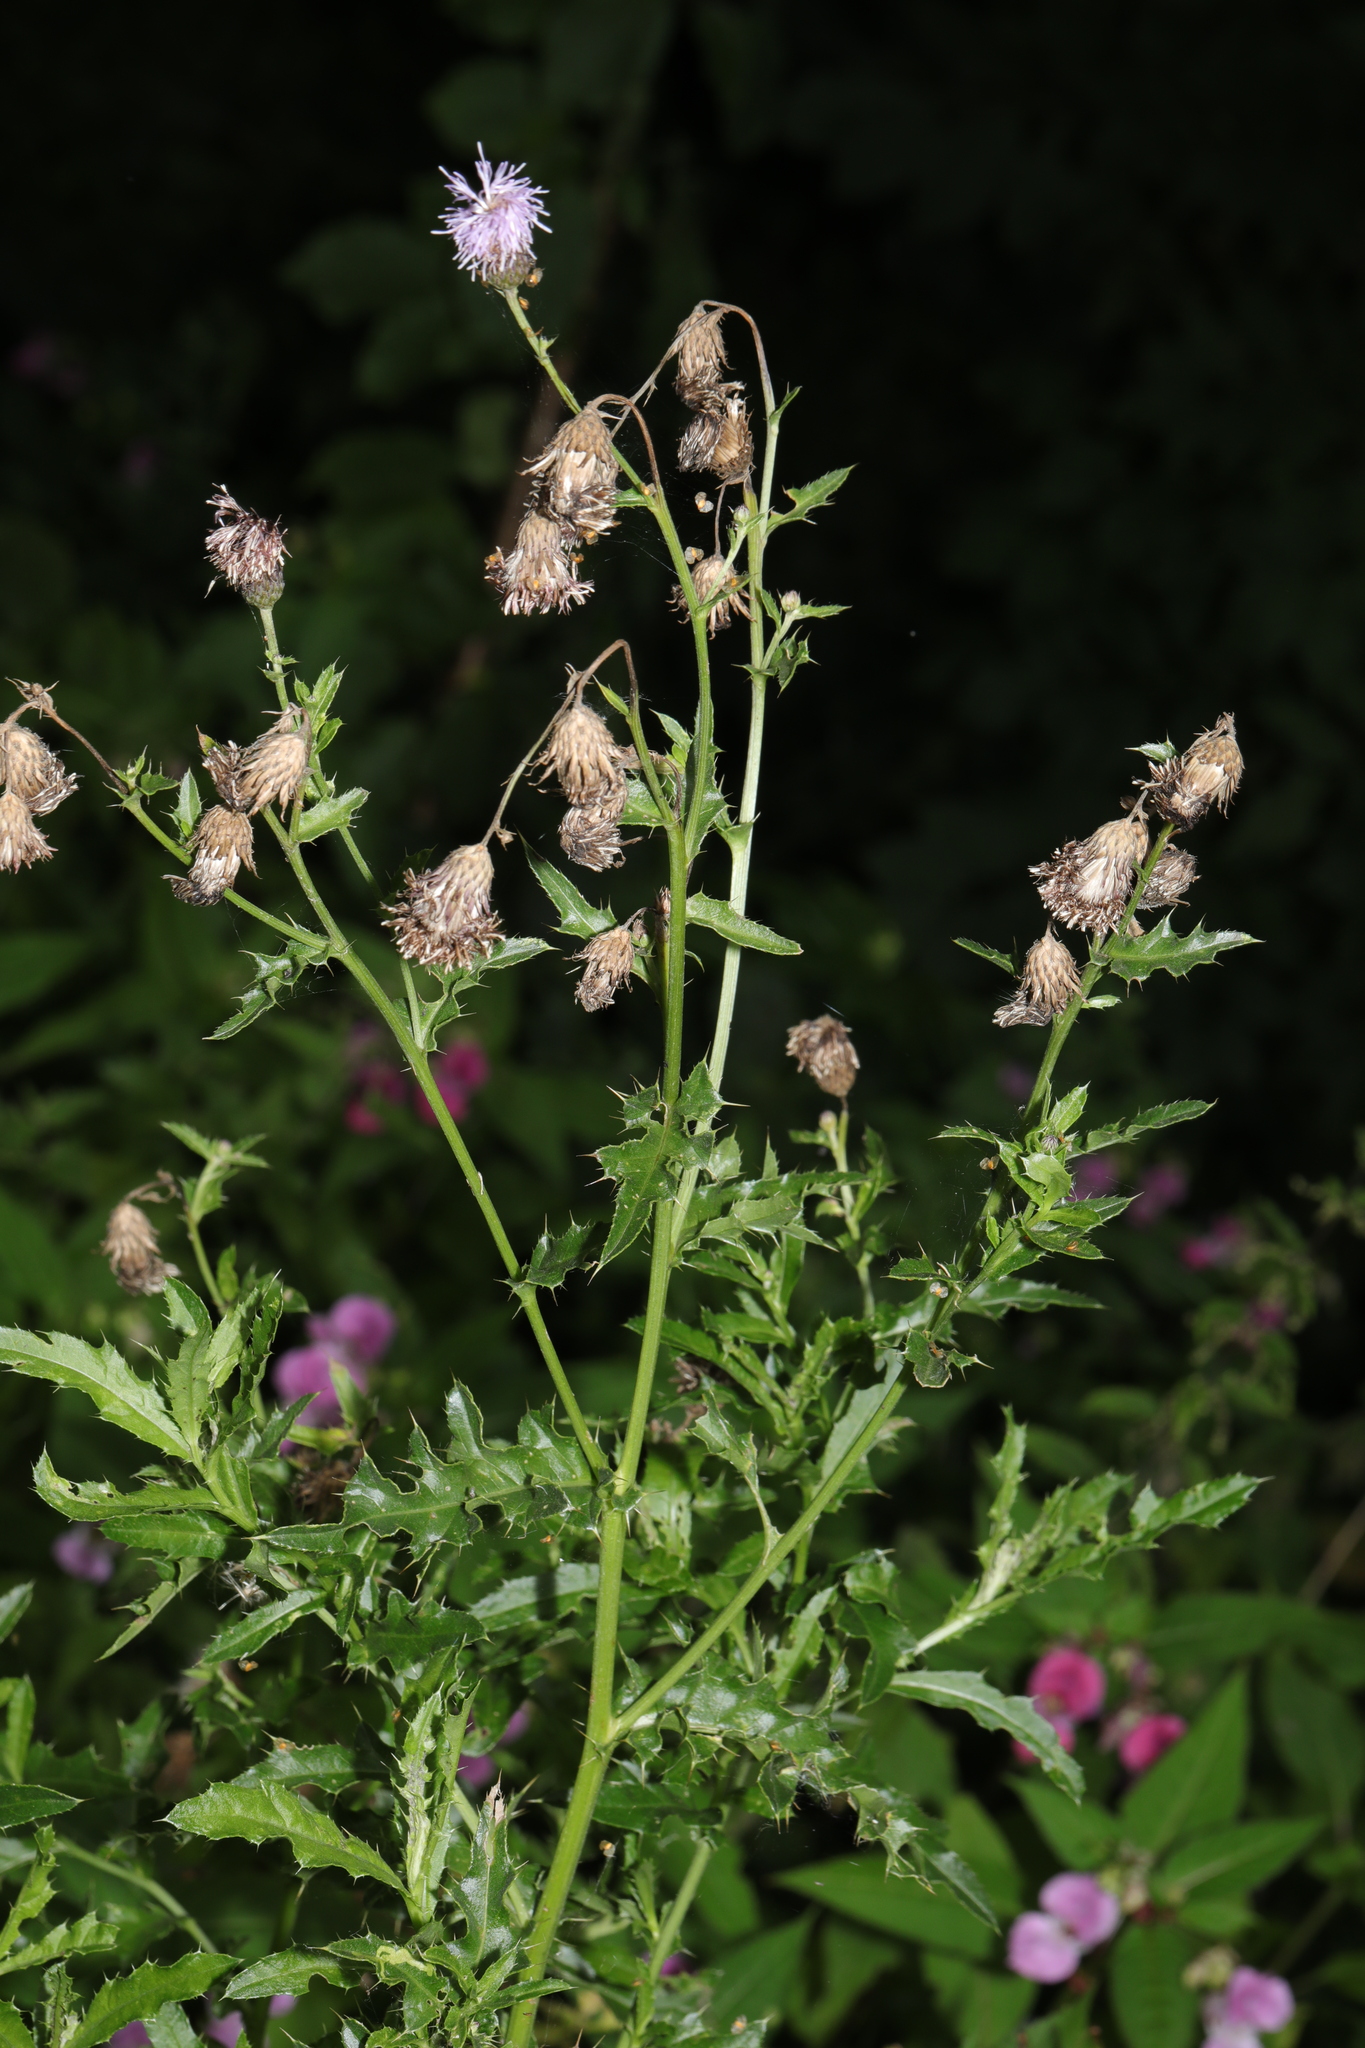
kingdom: Plantae
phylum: Tracheophyta
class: Magnoliopsida
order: Asterales
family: Asteraceae
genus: Cirsium
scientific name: Cirsium arvense
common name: Creeping thistle
